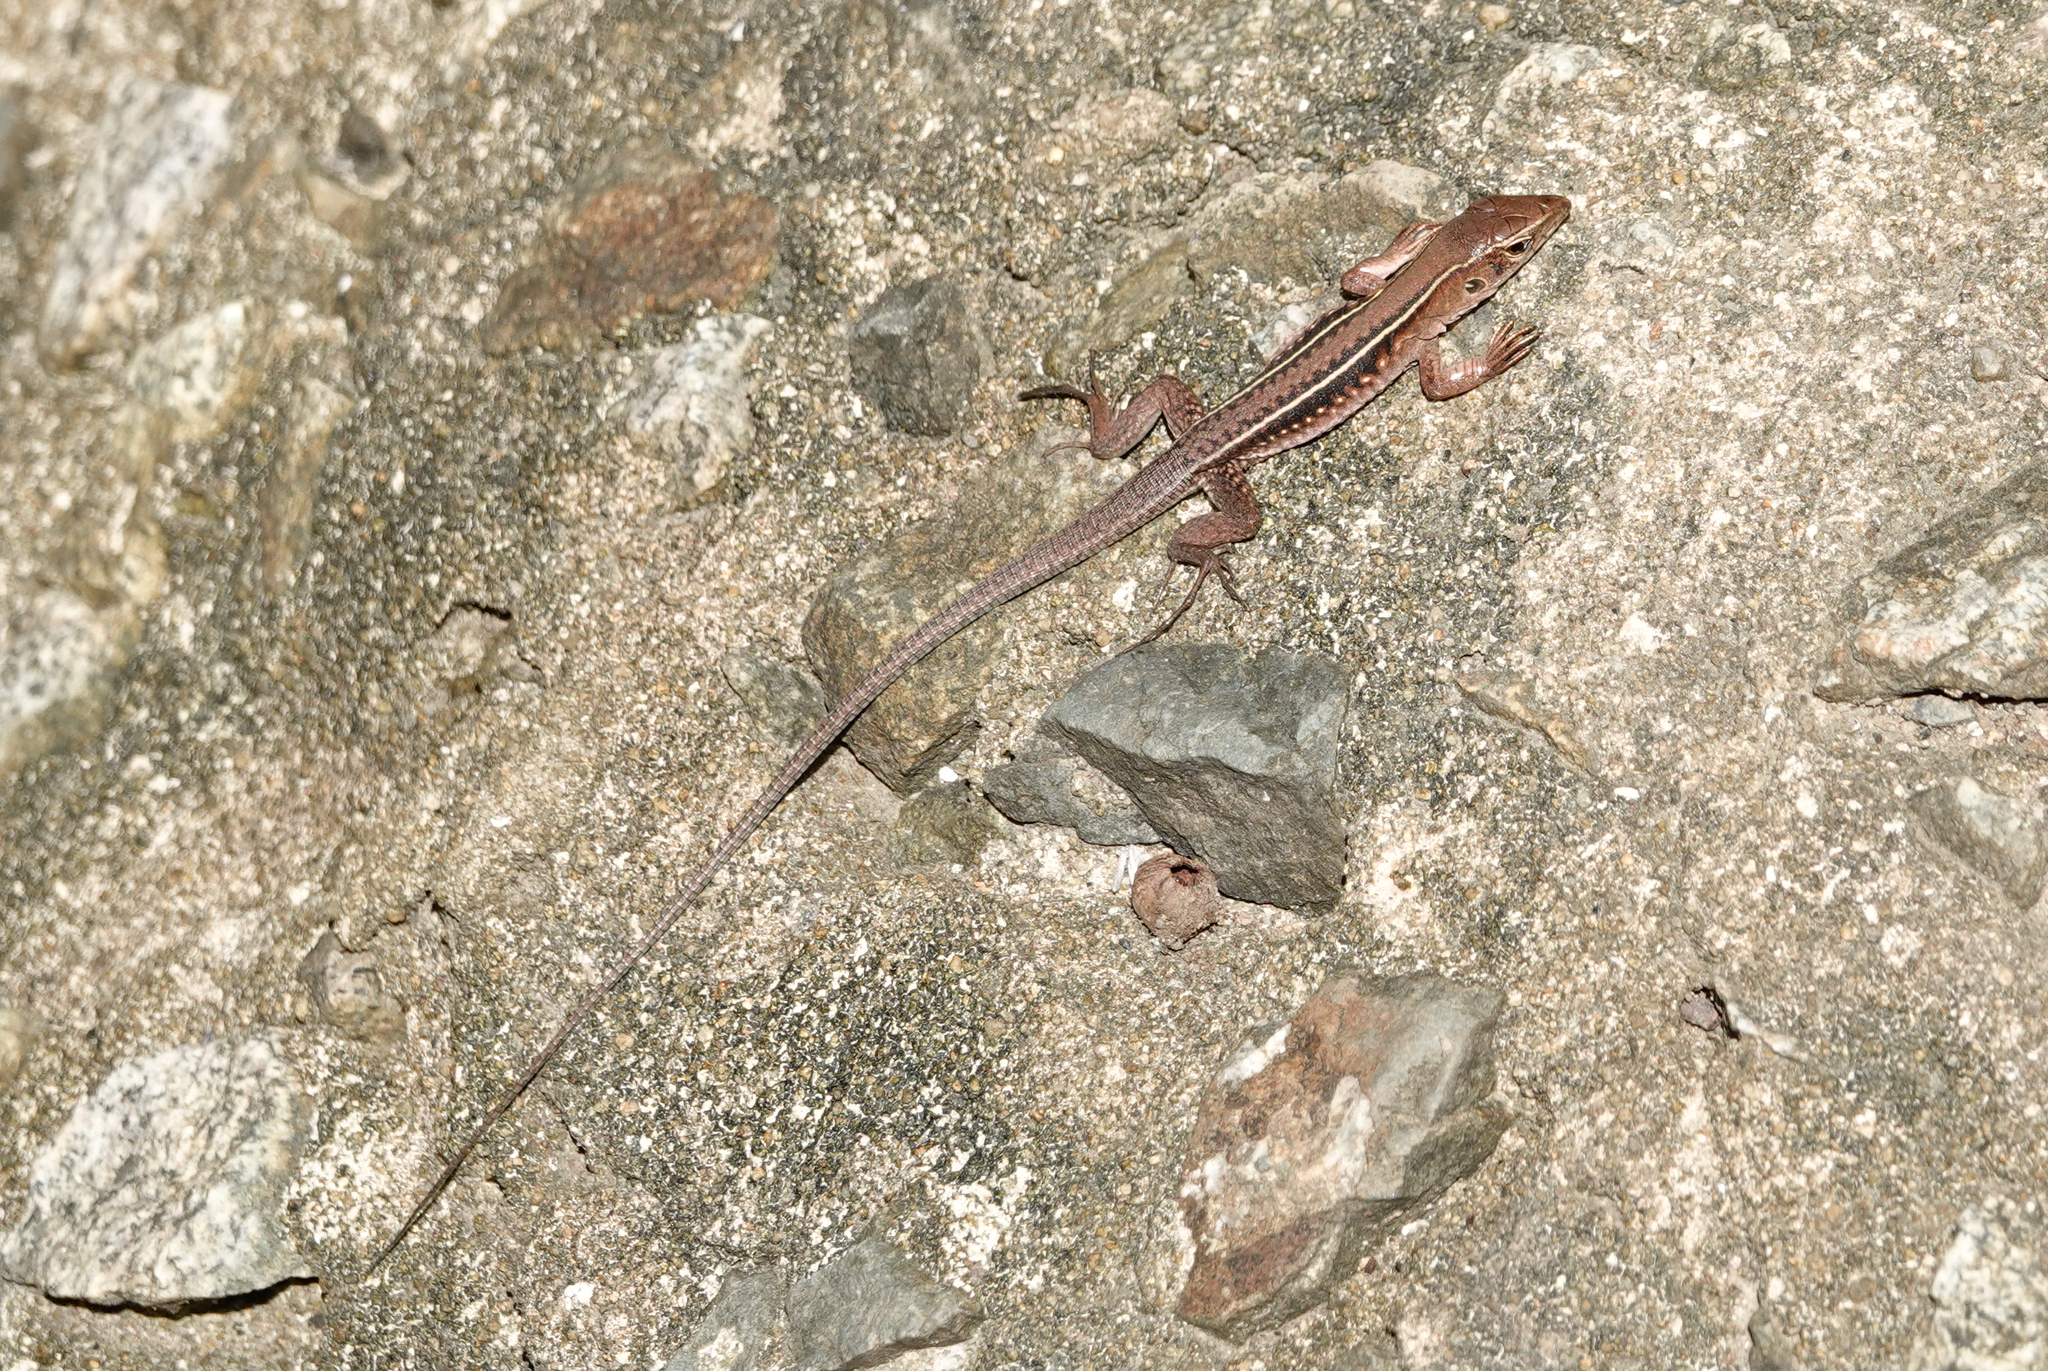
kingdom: Animalia
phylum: Chordata
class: Squamata
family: Teiidae
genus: Pholidoscelis
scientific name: Pholidoscelis exsul
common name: Common puerto rican ameiva
